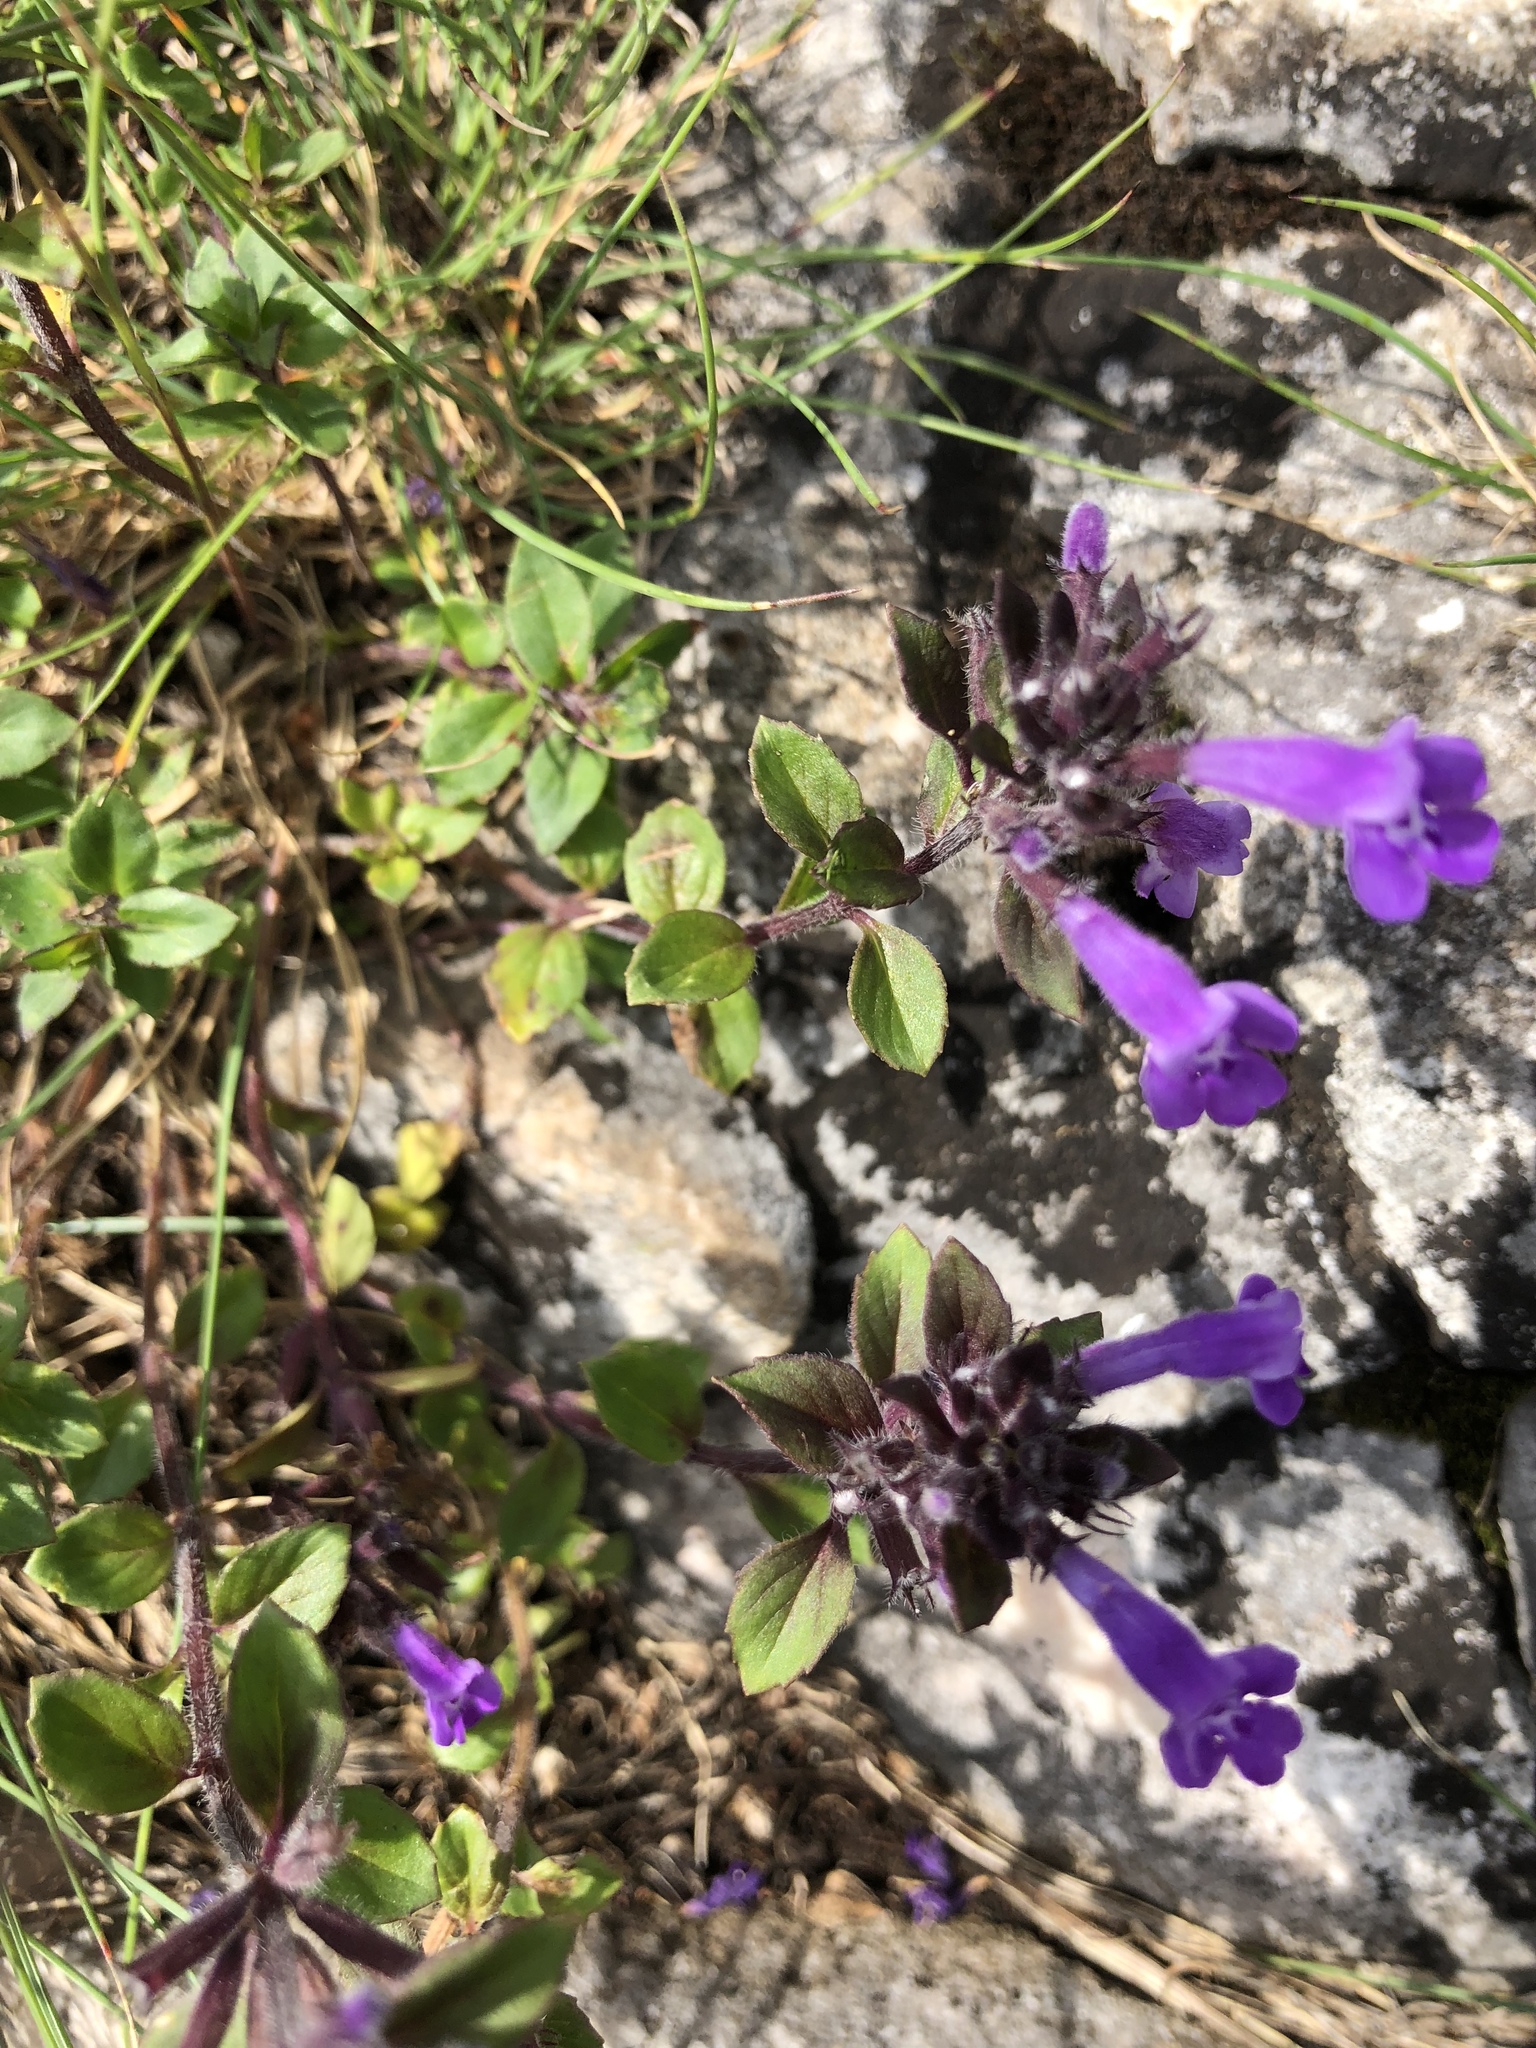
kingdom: Plantae
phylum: Tracheophyta
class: Magnoliopsida
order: Lamiales
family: Lamiaceae
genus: Clinopodium
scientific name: Clinopodium alpinum
